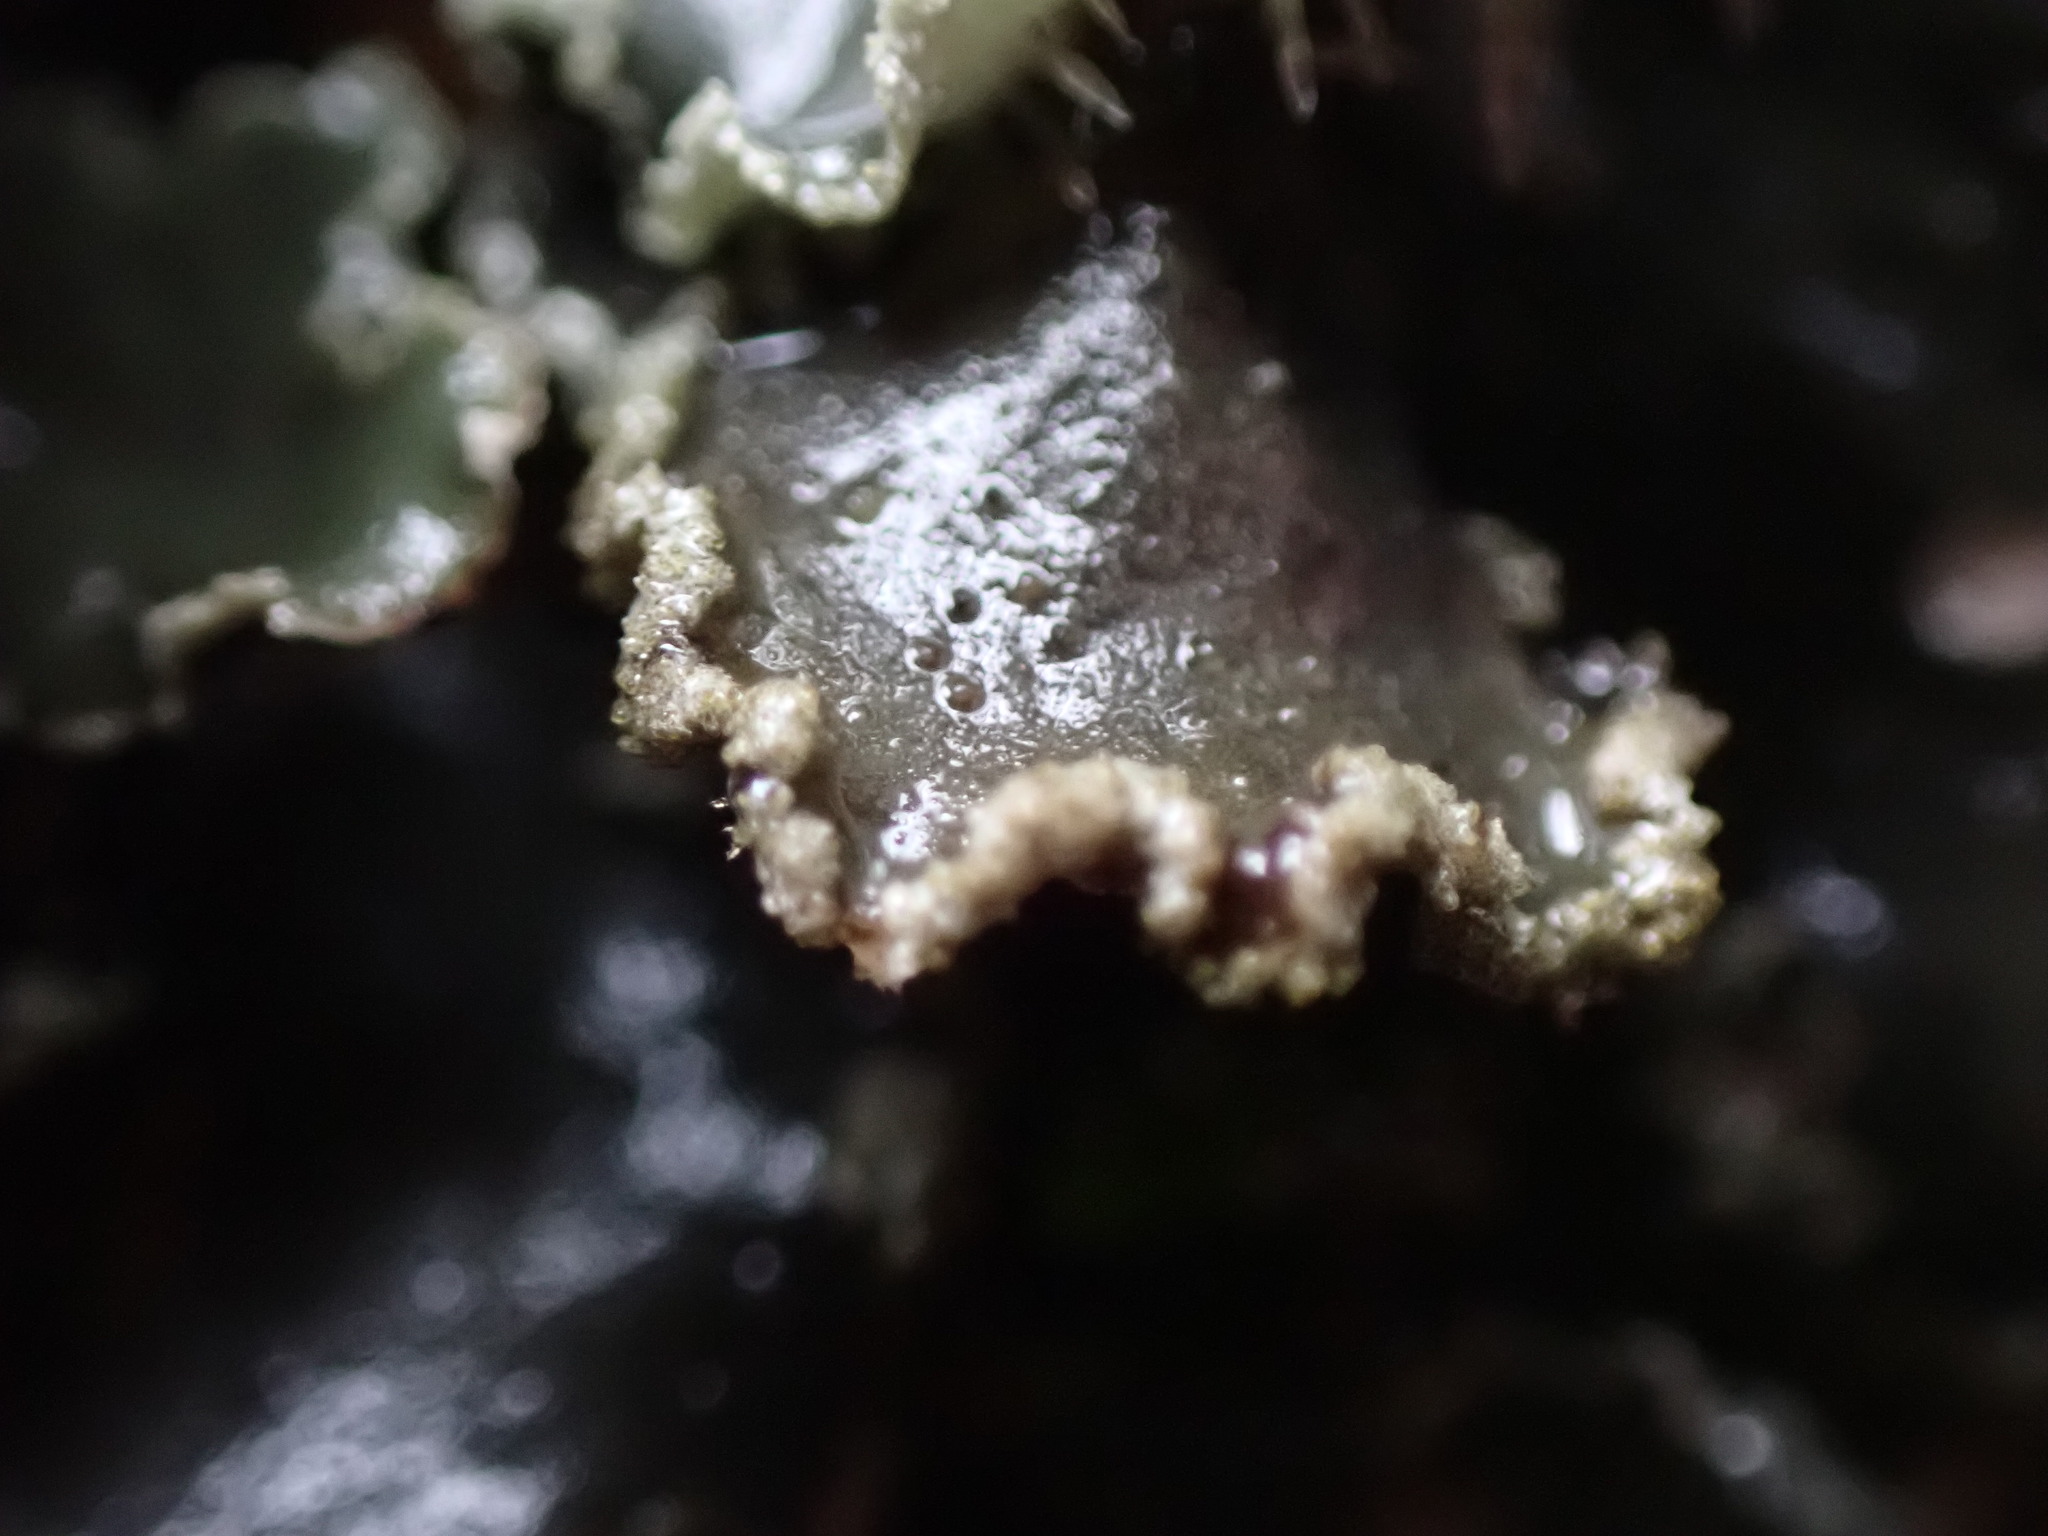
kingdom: Fungi
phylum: Ascomycota
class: Lecanoromycetes
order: Peltigerales
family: Peltigeraceae
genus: Peltigera
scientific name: Peltigera collina
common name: Gritty tree pelt lichen
